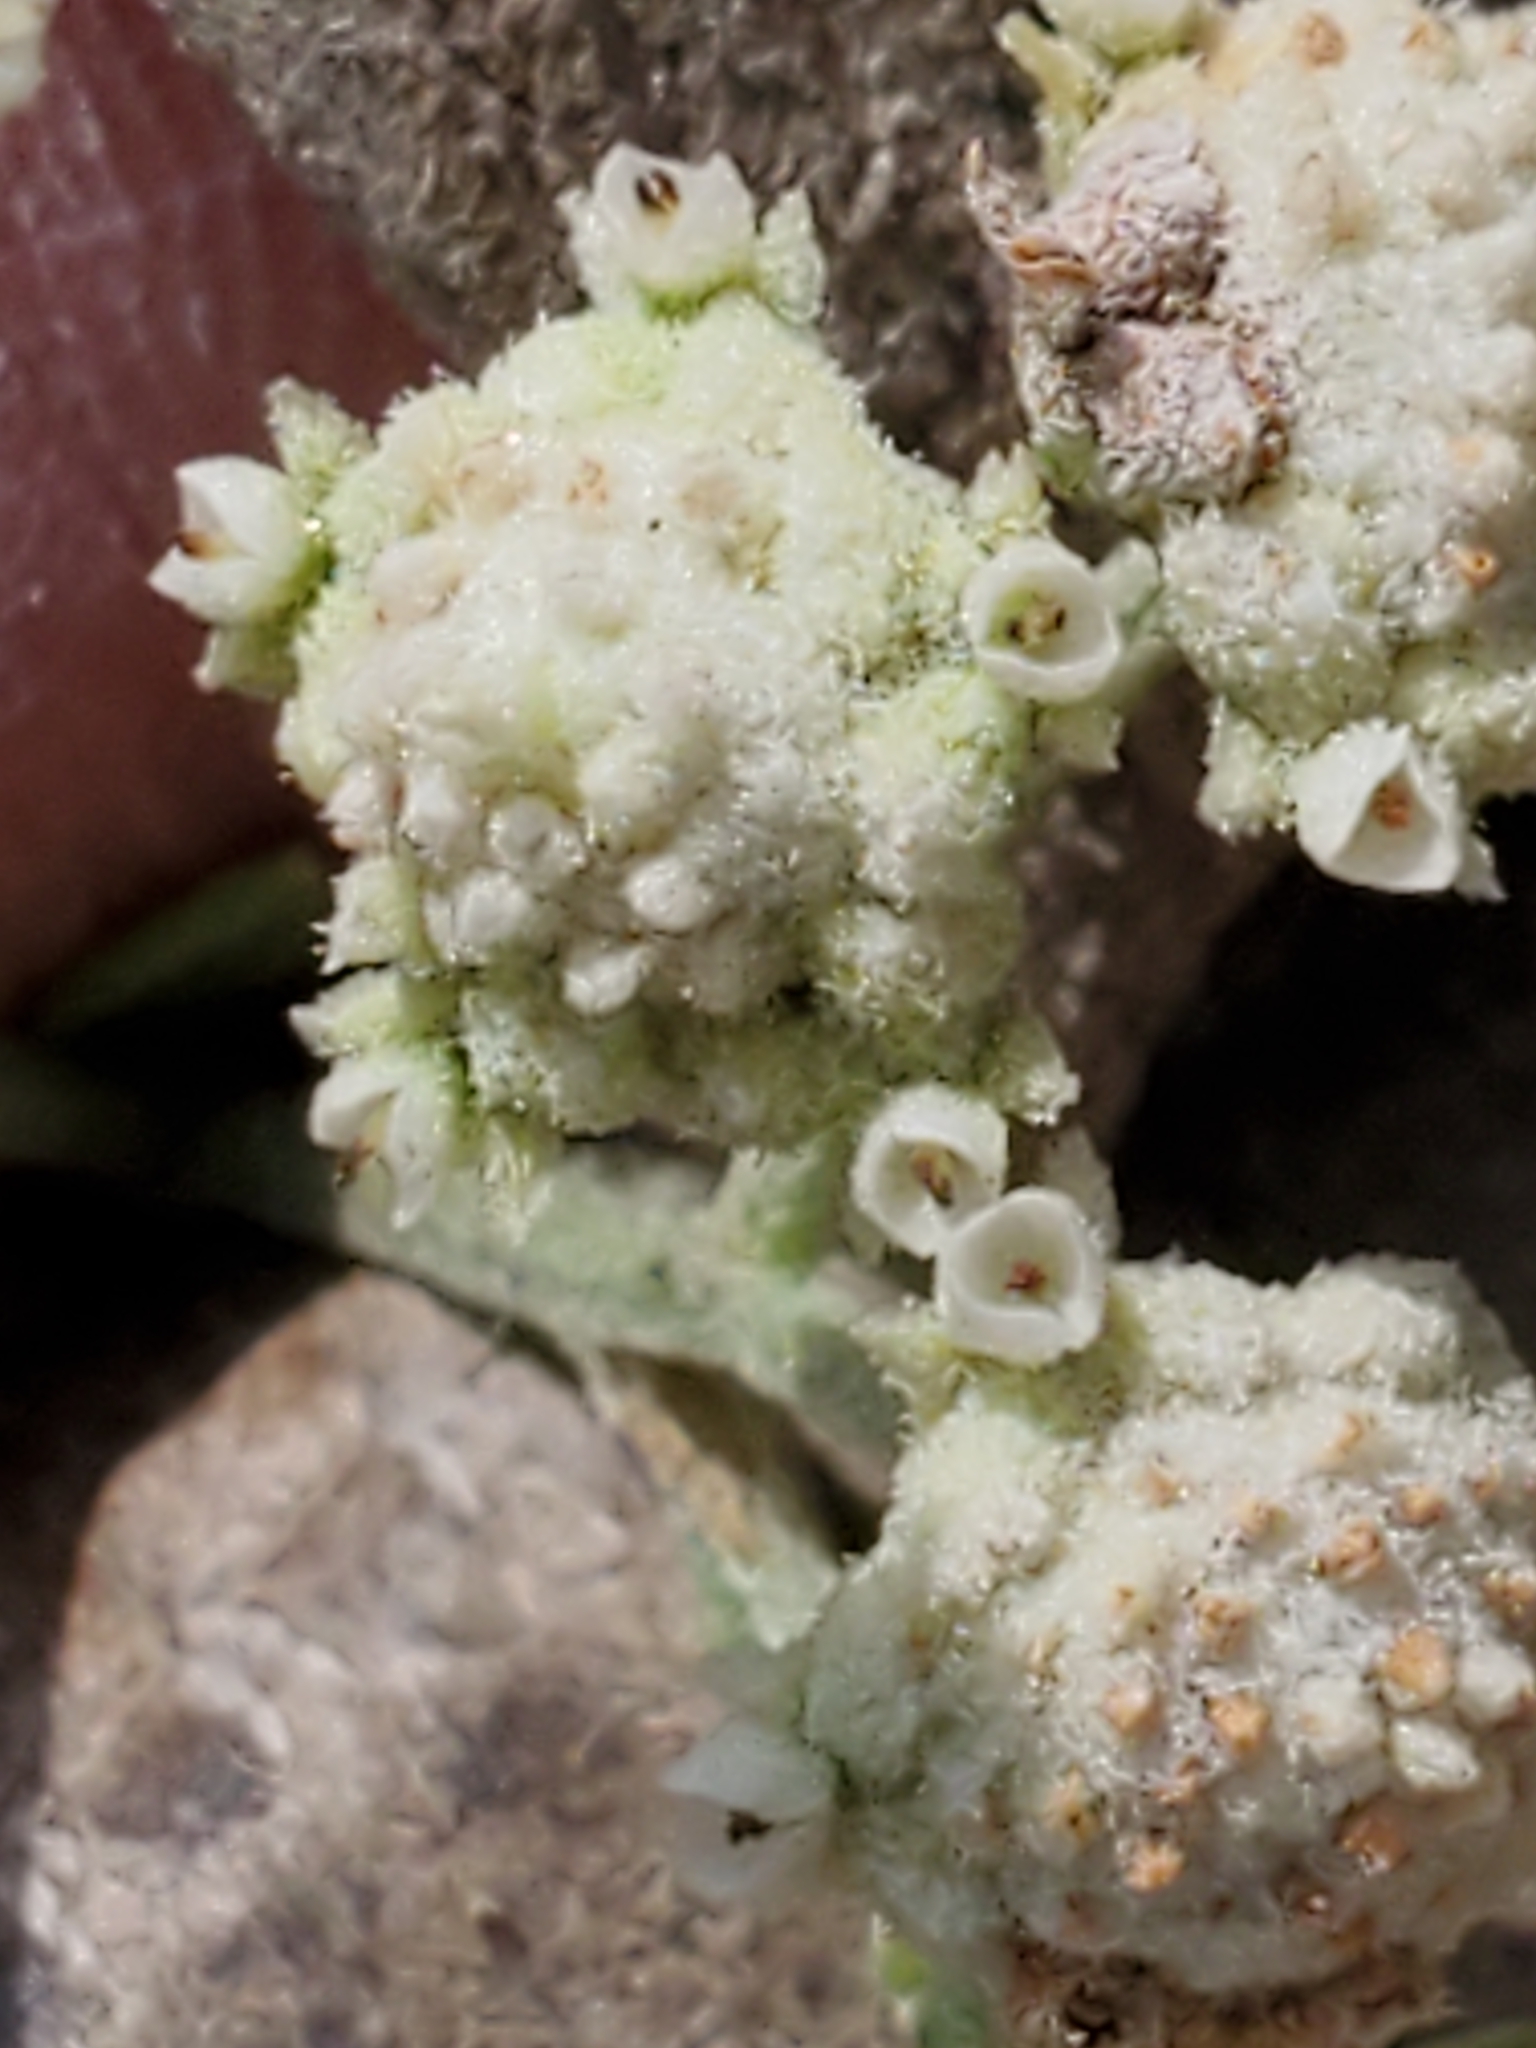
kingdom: Plantae
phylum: Tracheophyta
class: Magnoliopsida
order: Asterales
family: Asteraceae
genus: Parthenium
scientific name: Parthenium confertum
